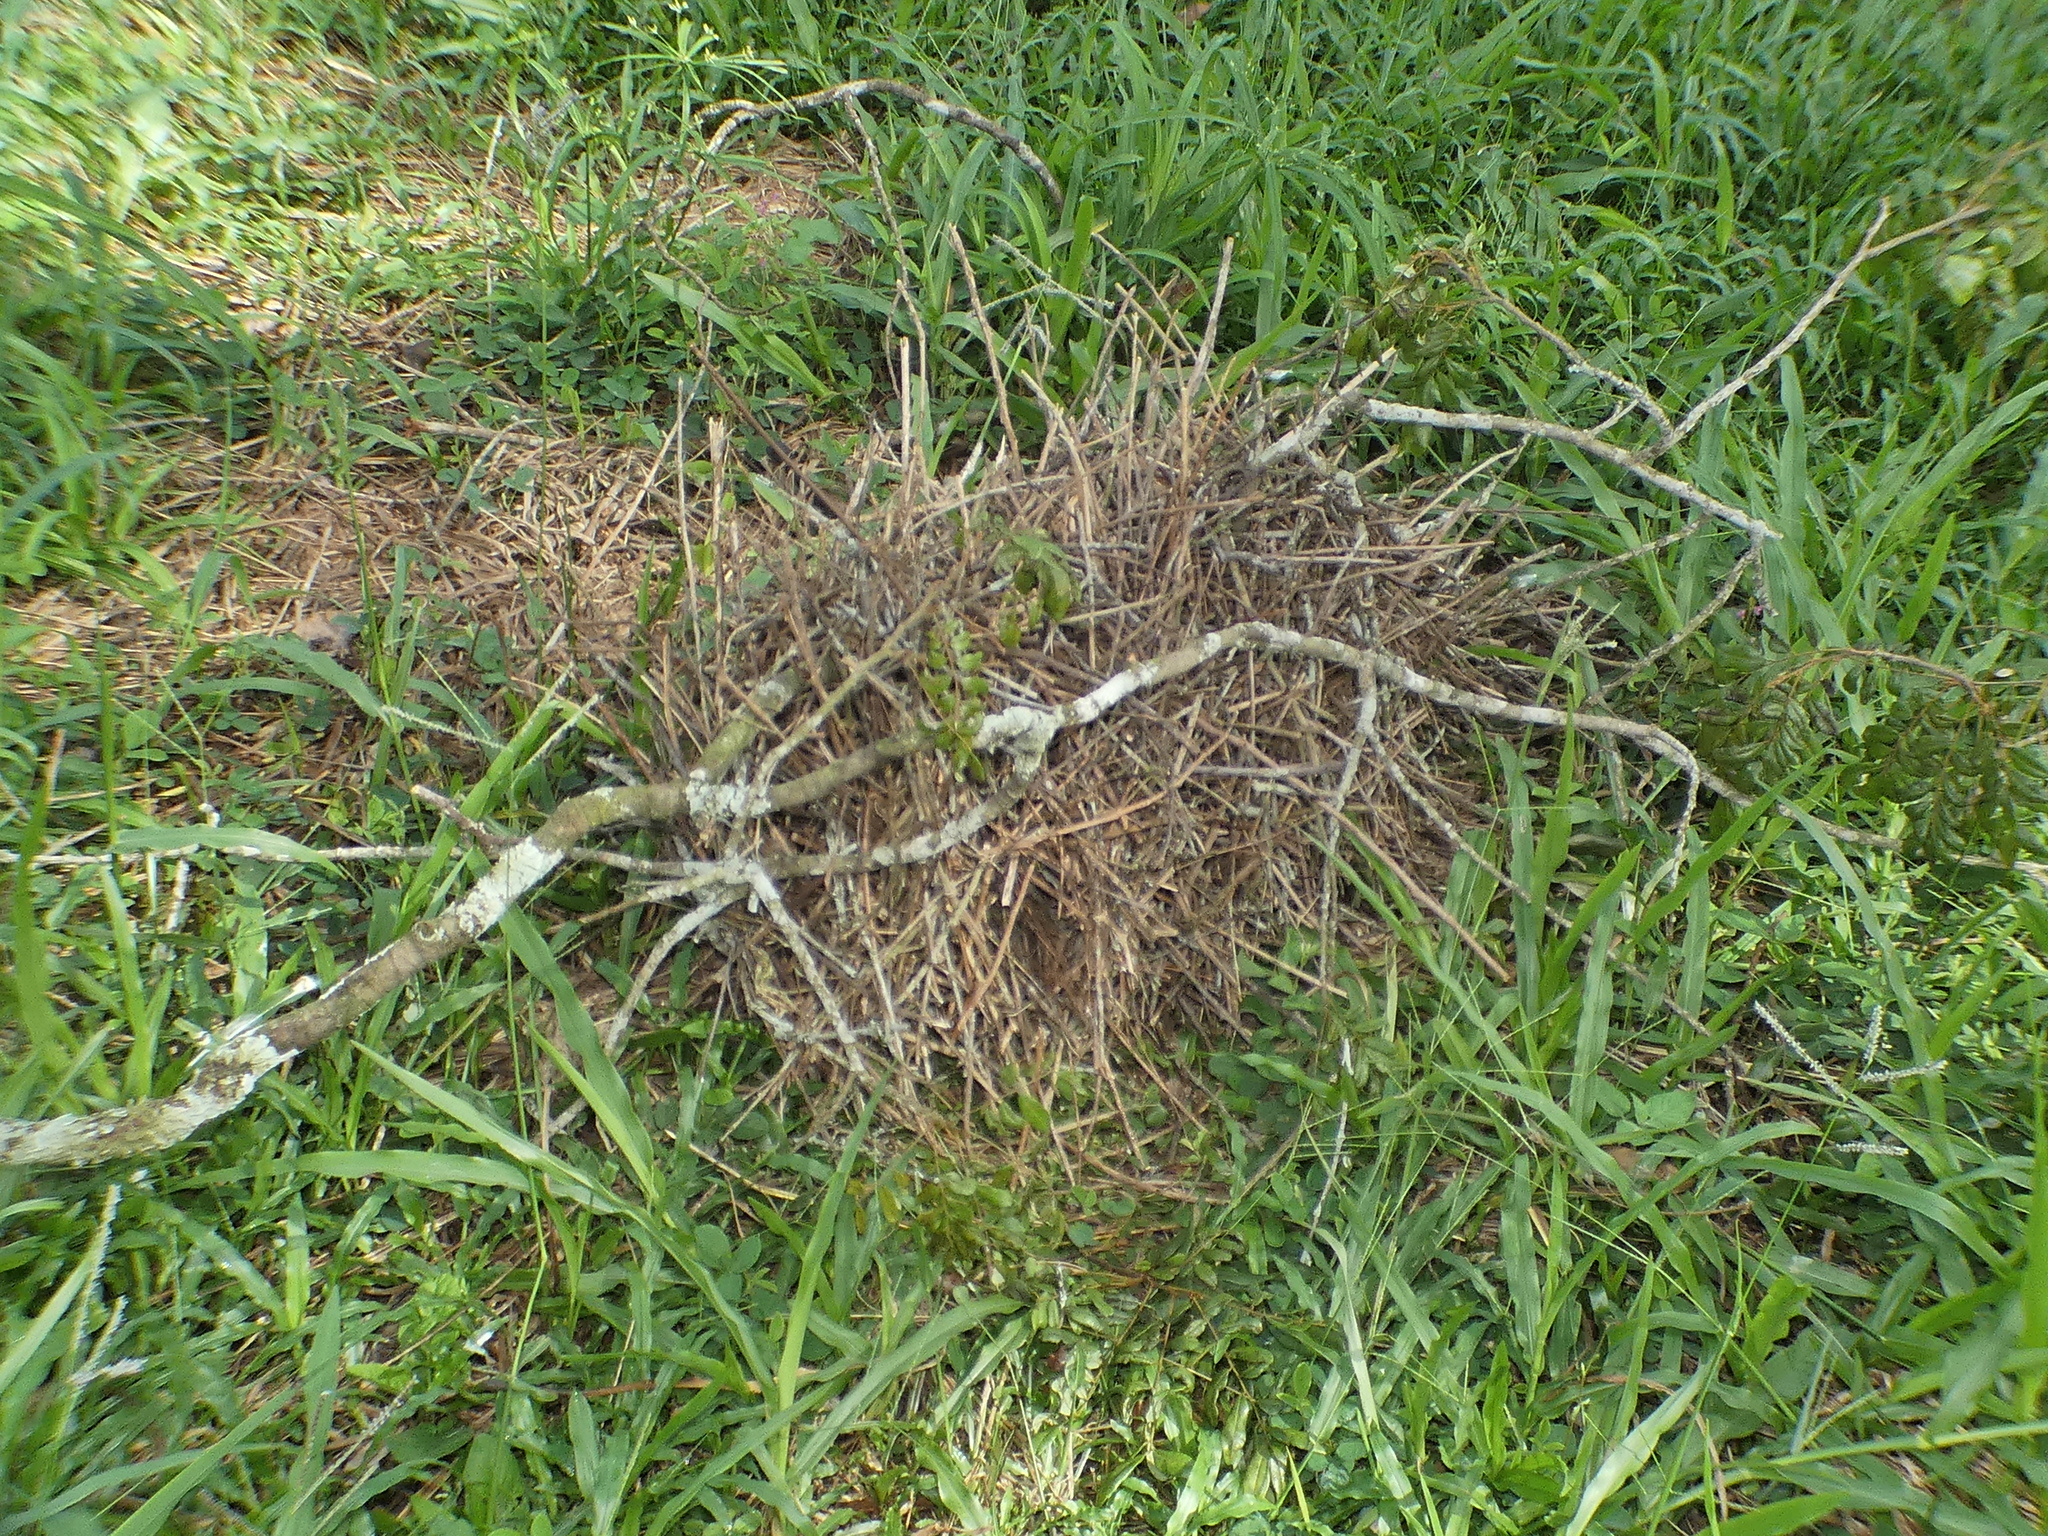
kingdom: Animalia
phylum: Chordata
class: Aves
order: Passeriformes
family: Furnariidae
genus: Phacellodomus
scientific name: Phacellodomus rufifrons
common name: Rufous-fronted thornbird
